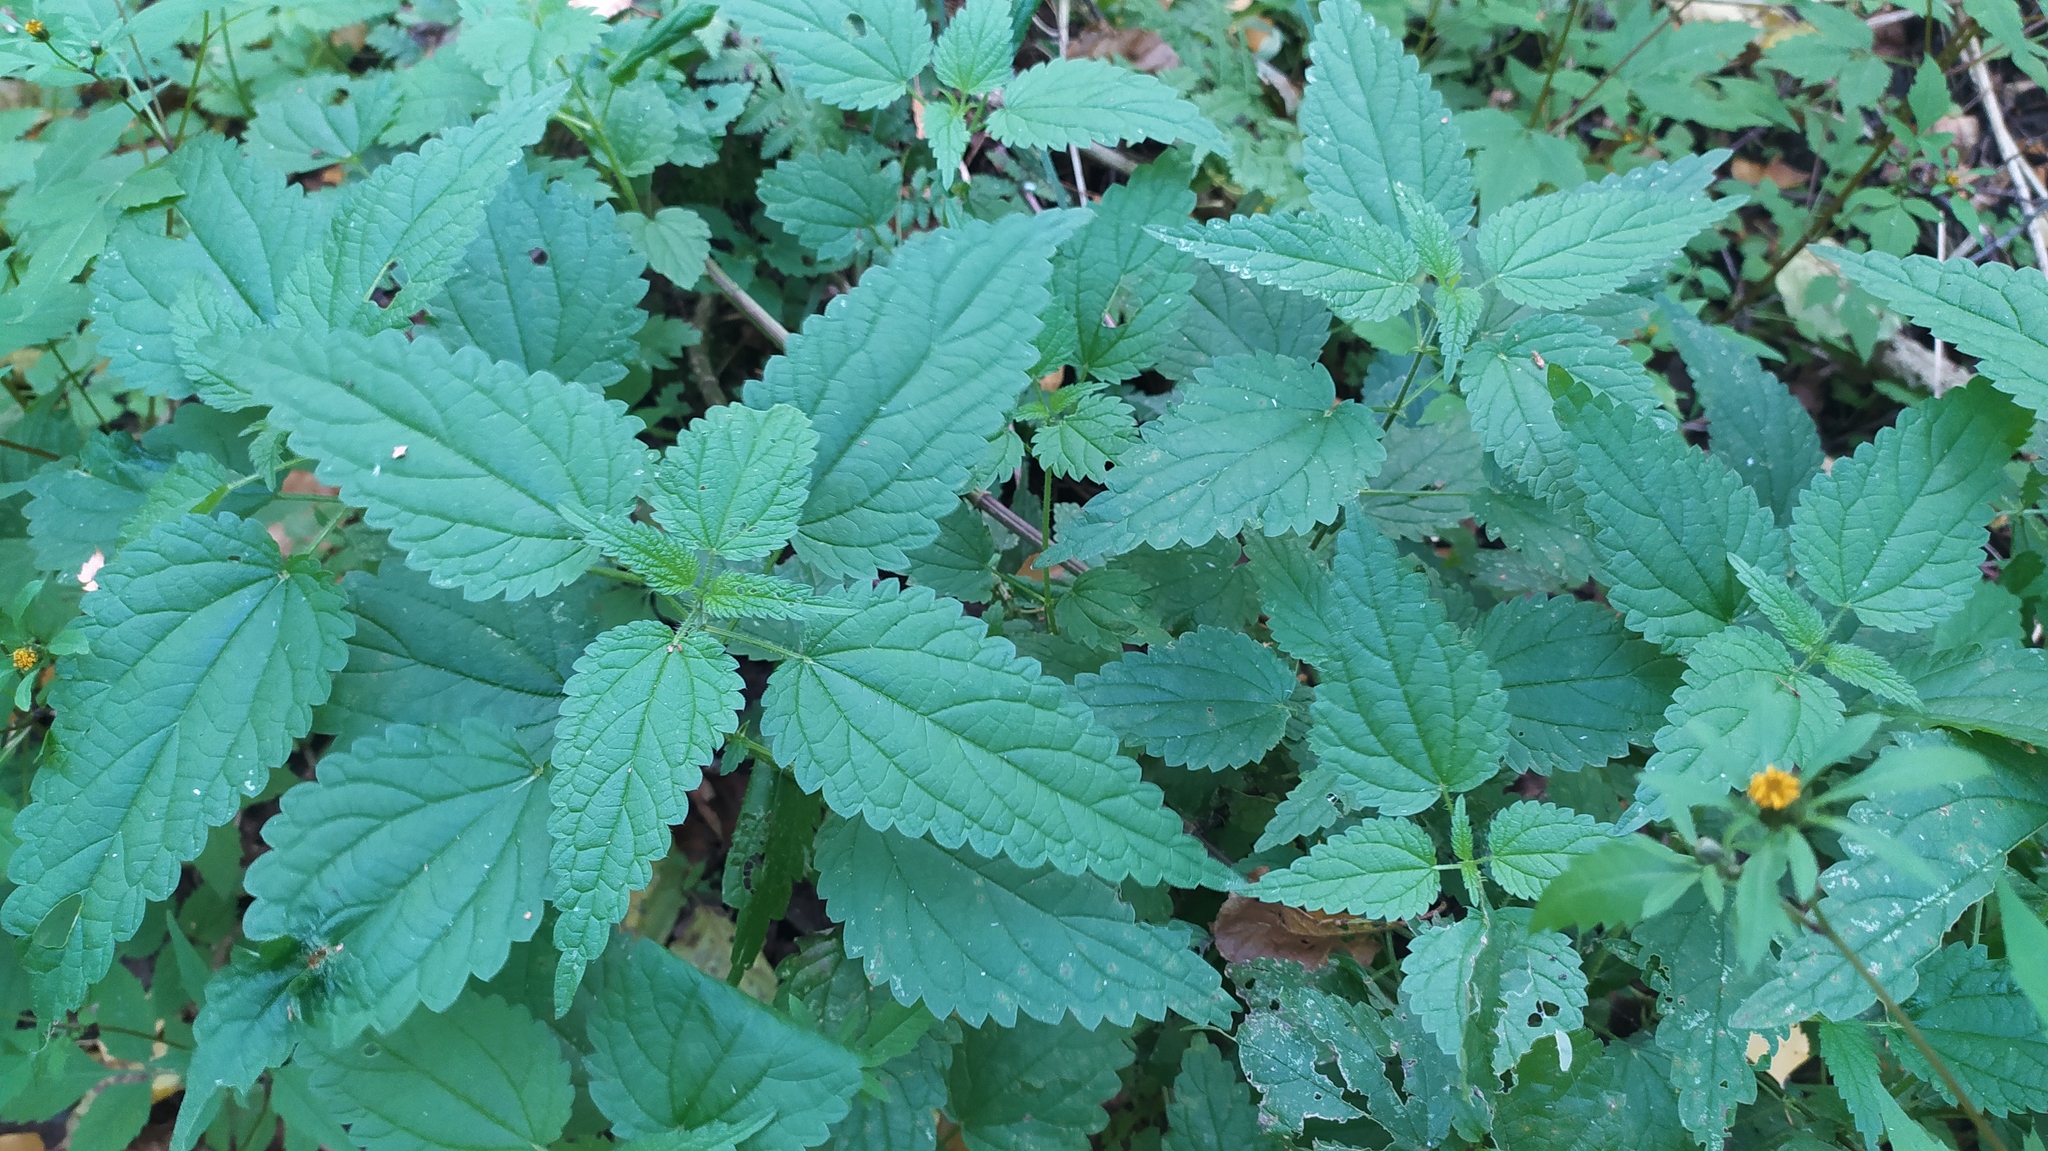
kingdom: Plantae
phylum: Tracheophyta
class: Magnoliopsida
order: Rosales
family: Urticaceae
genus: Urtica
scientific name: Urtica dioica
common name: Common nettle
